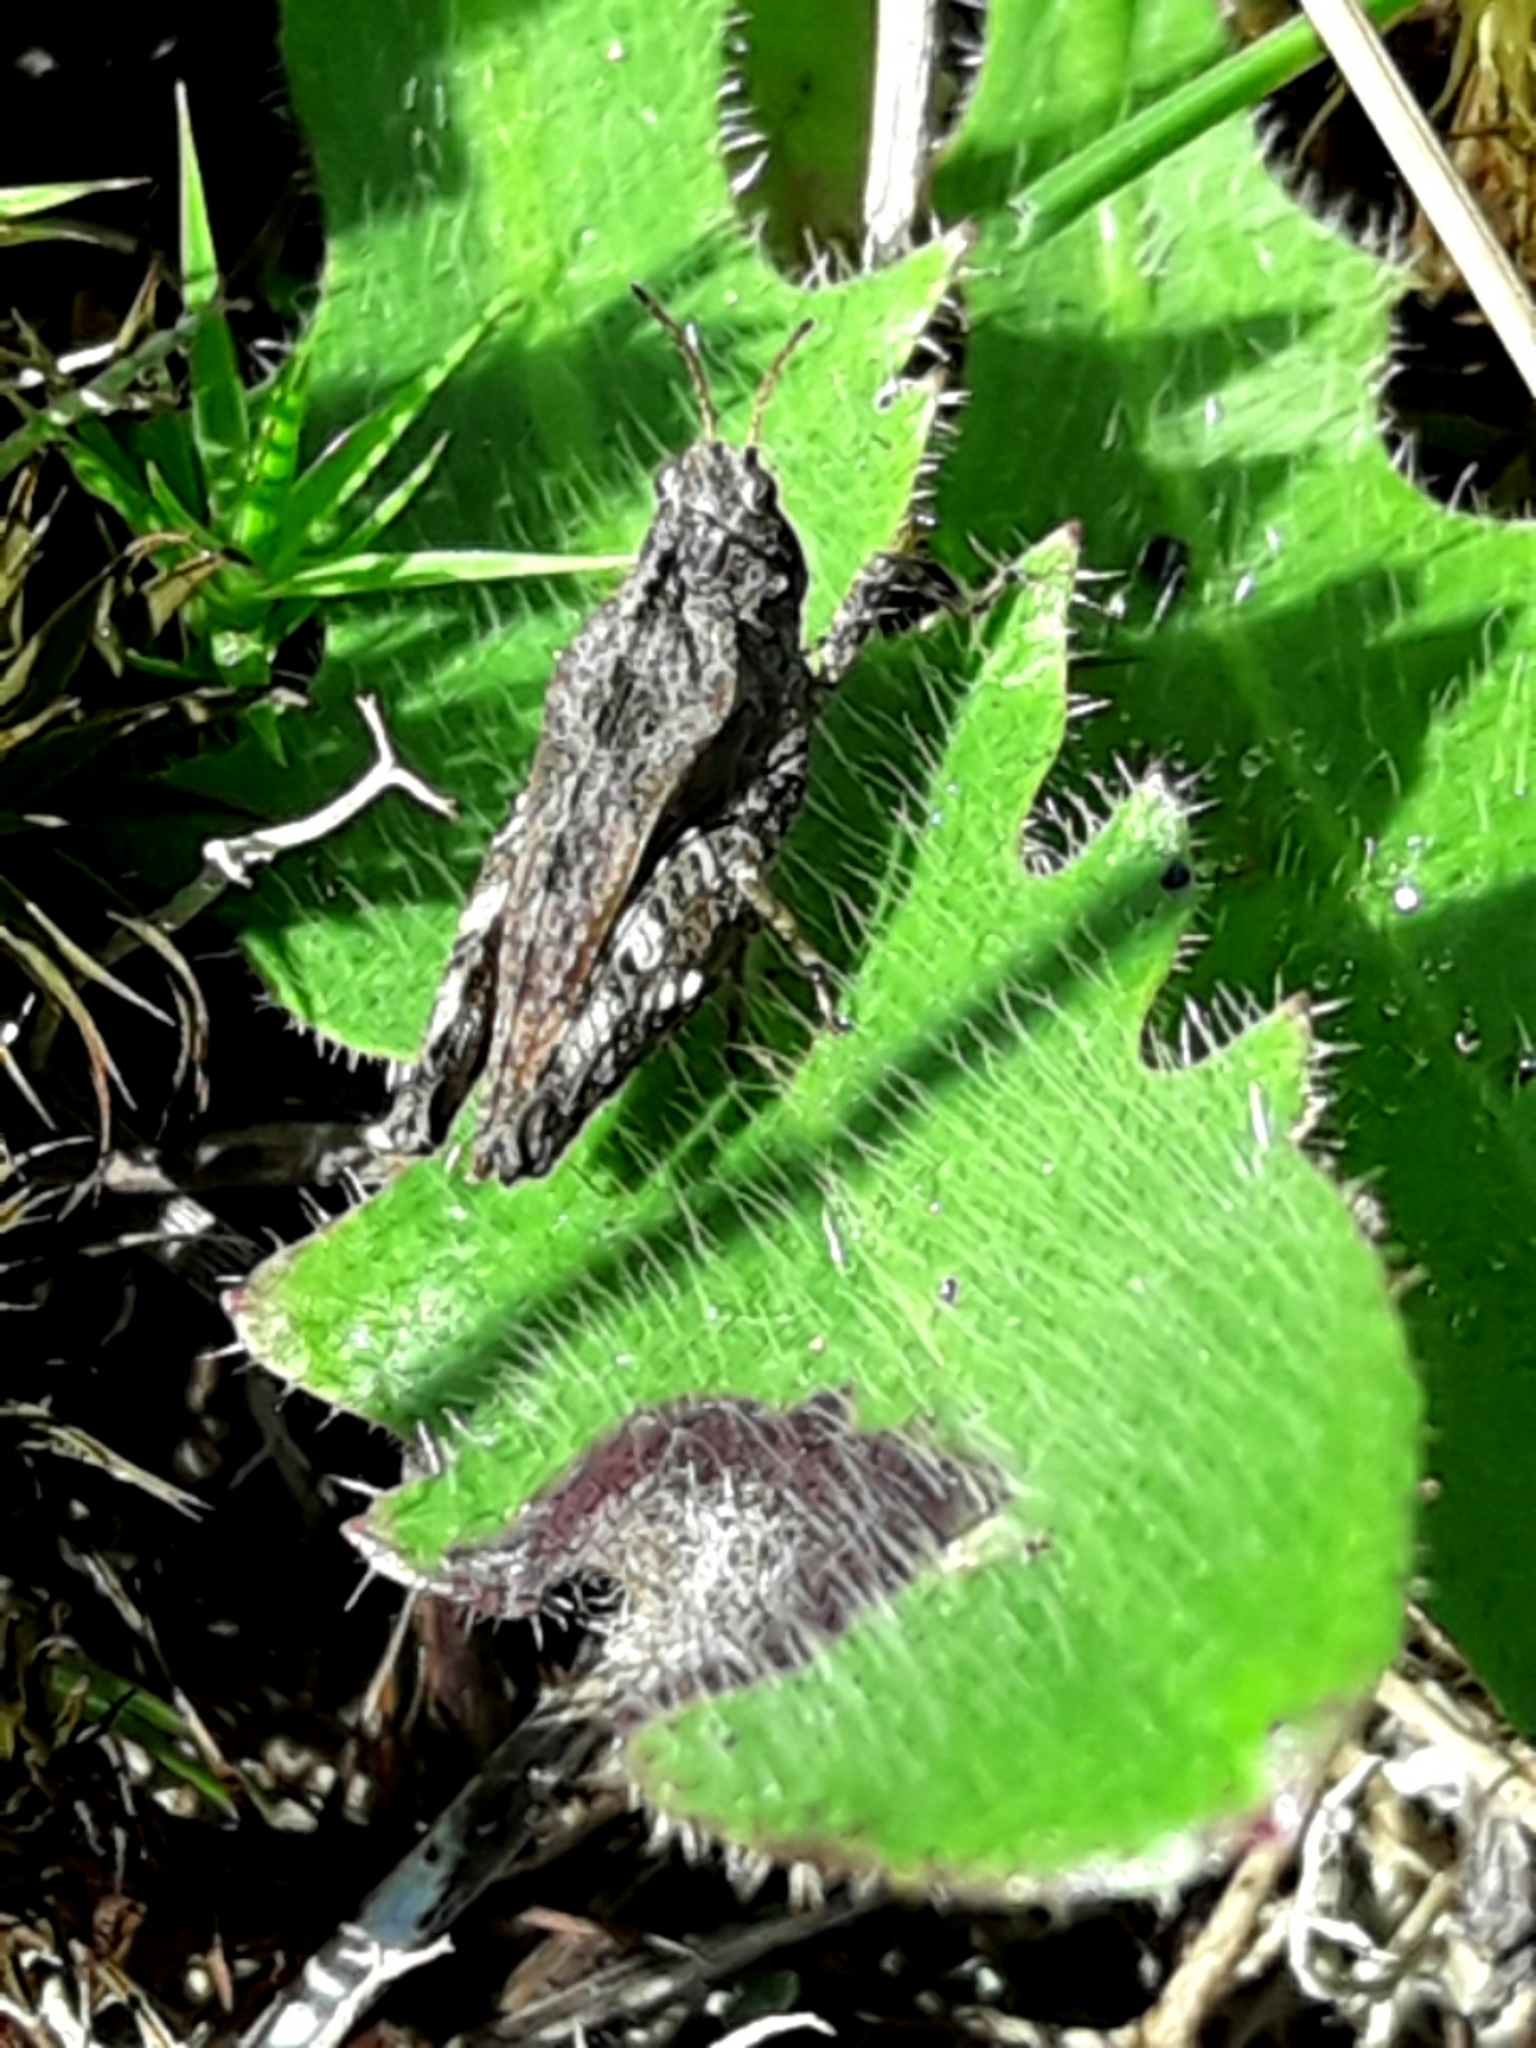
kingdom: Animalia
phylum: Arthropoda
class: Insecta
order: Orthoptera
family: Tetrigidae
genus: Tetrix
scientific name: Tetrix undulata
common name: Common groundhopper
